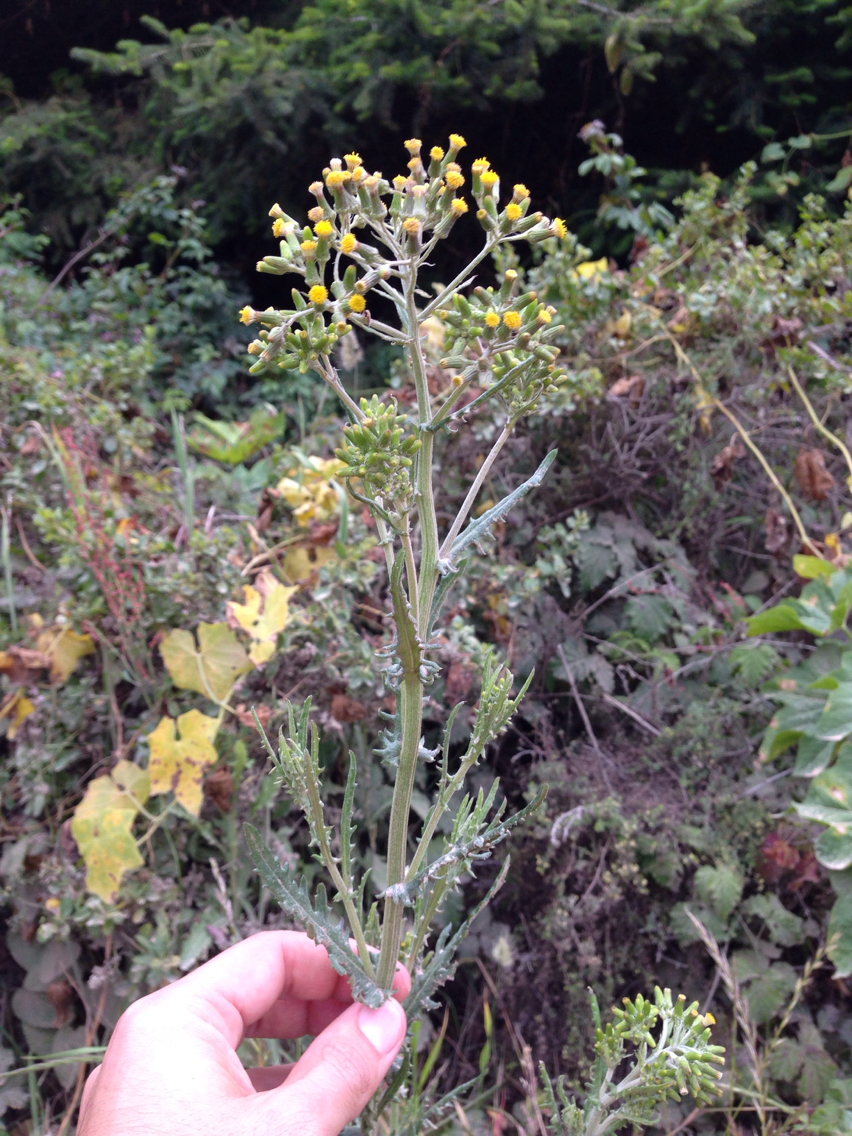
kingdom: Plantae
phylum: Tracheophyta
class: Magnoliopsida
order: Asterales
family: Asteraceae
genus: Senecio
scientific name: Senecio glomeratus
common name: Cutleaf burnweed
